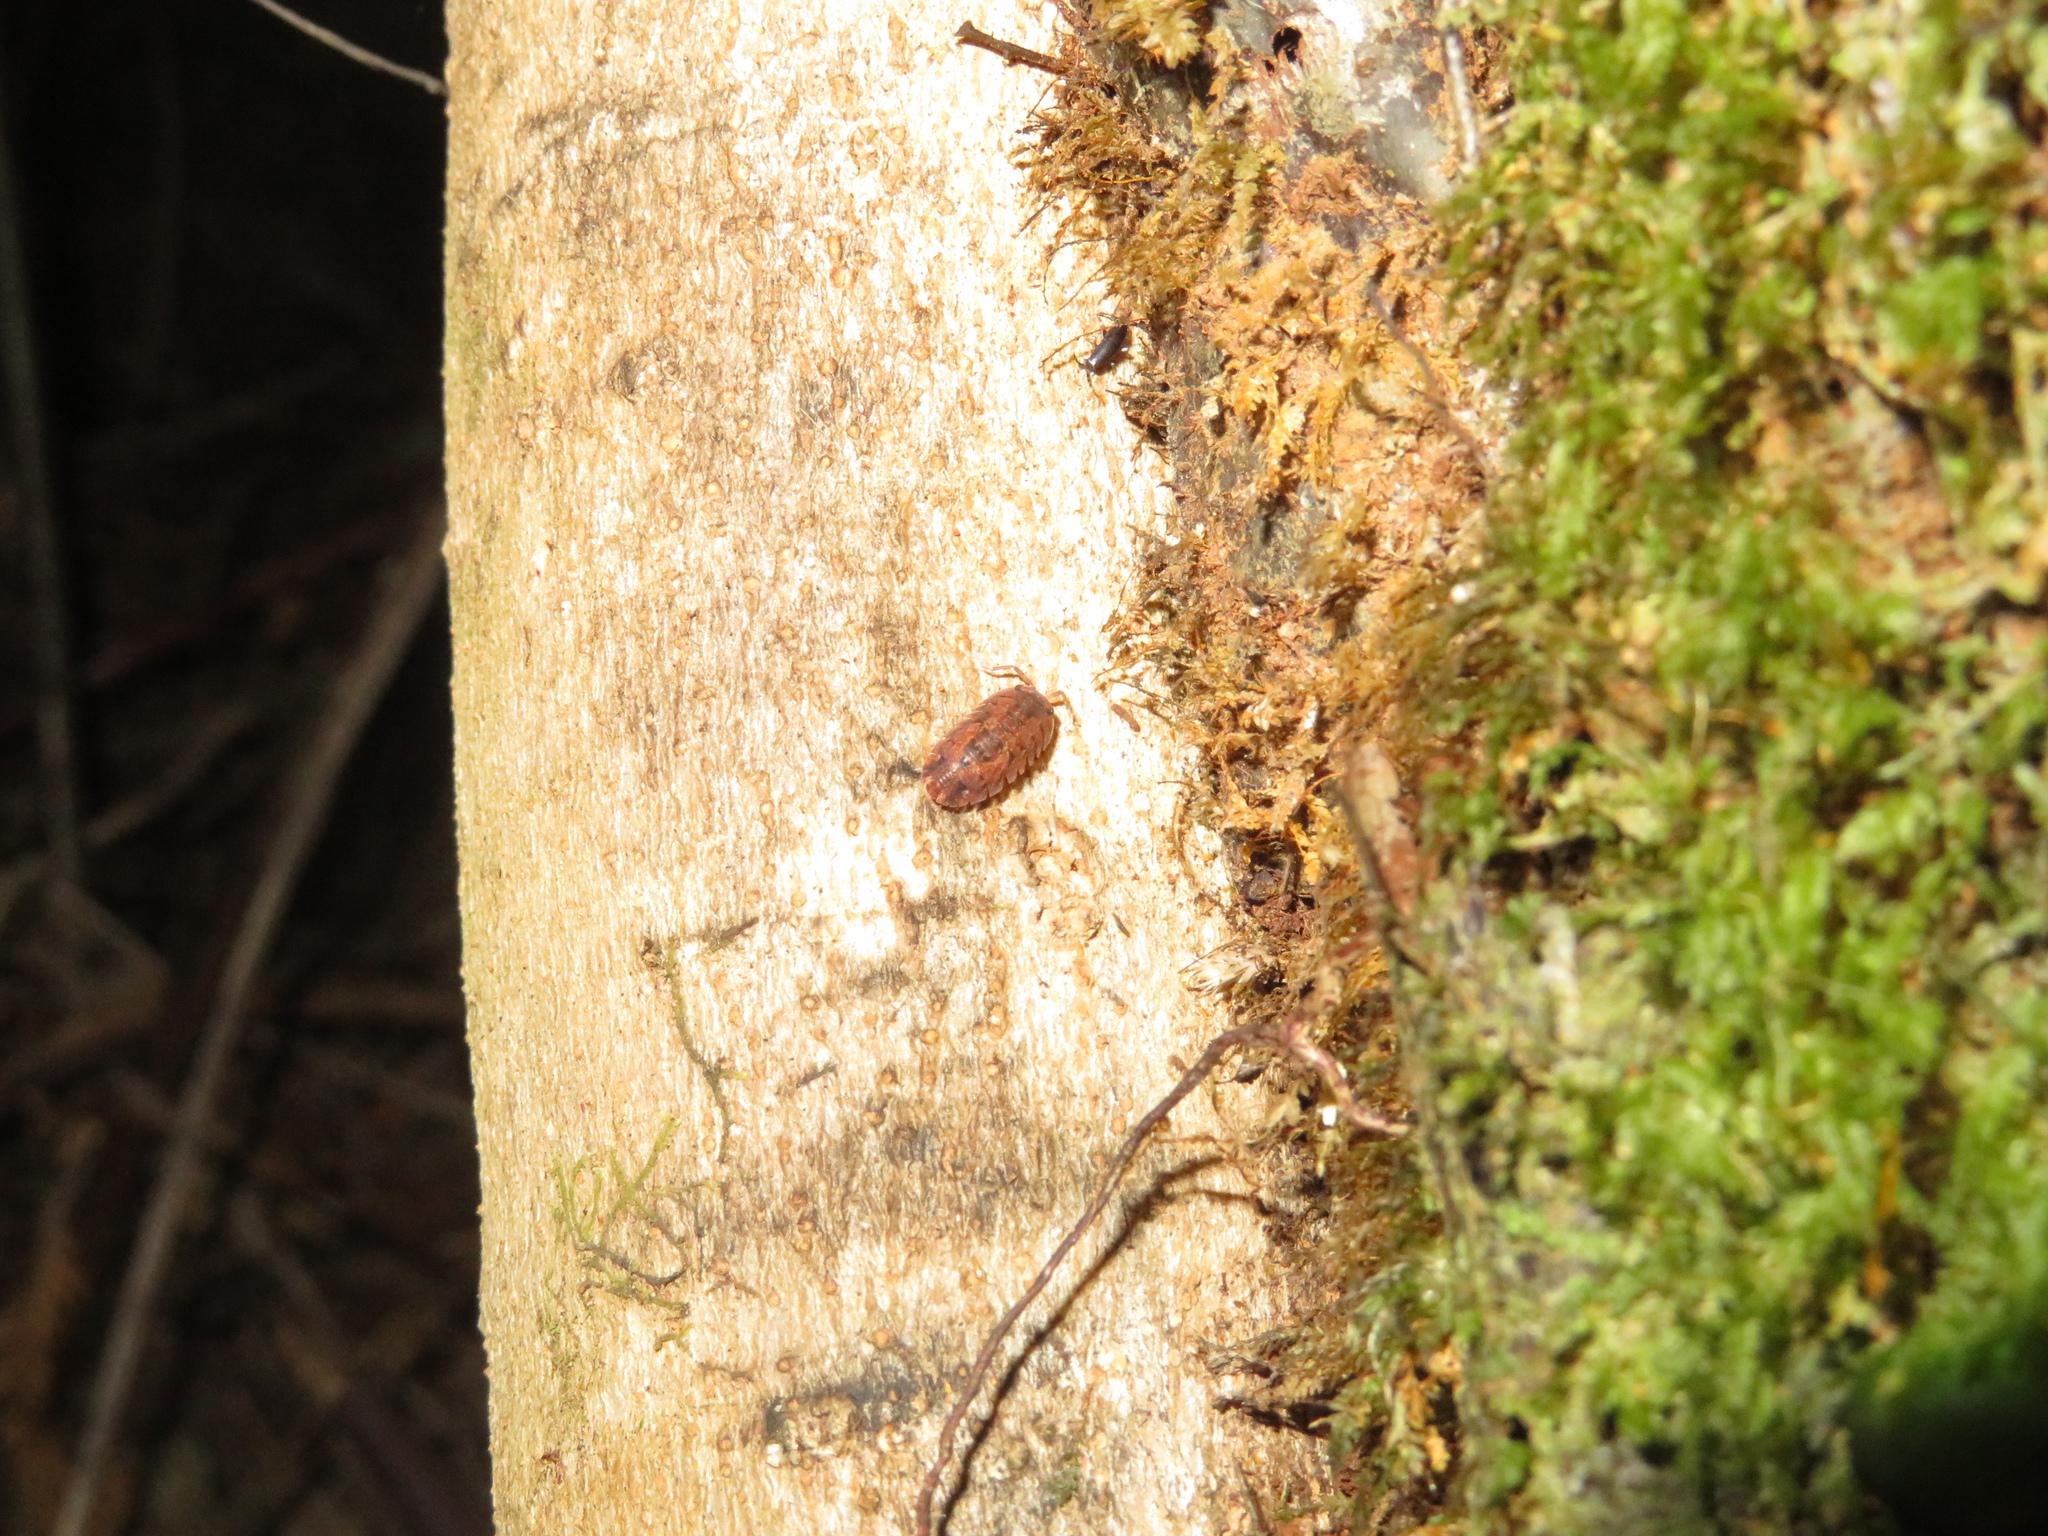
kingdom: Animalia
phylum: Arthropoda
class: Malacostraca
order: Isopoda
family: Armadillidae
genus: Cubaris
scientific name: Cubaris tarangensis
